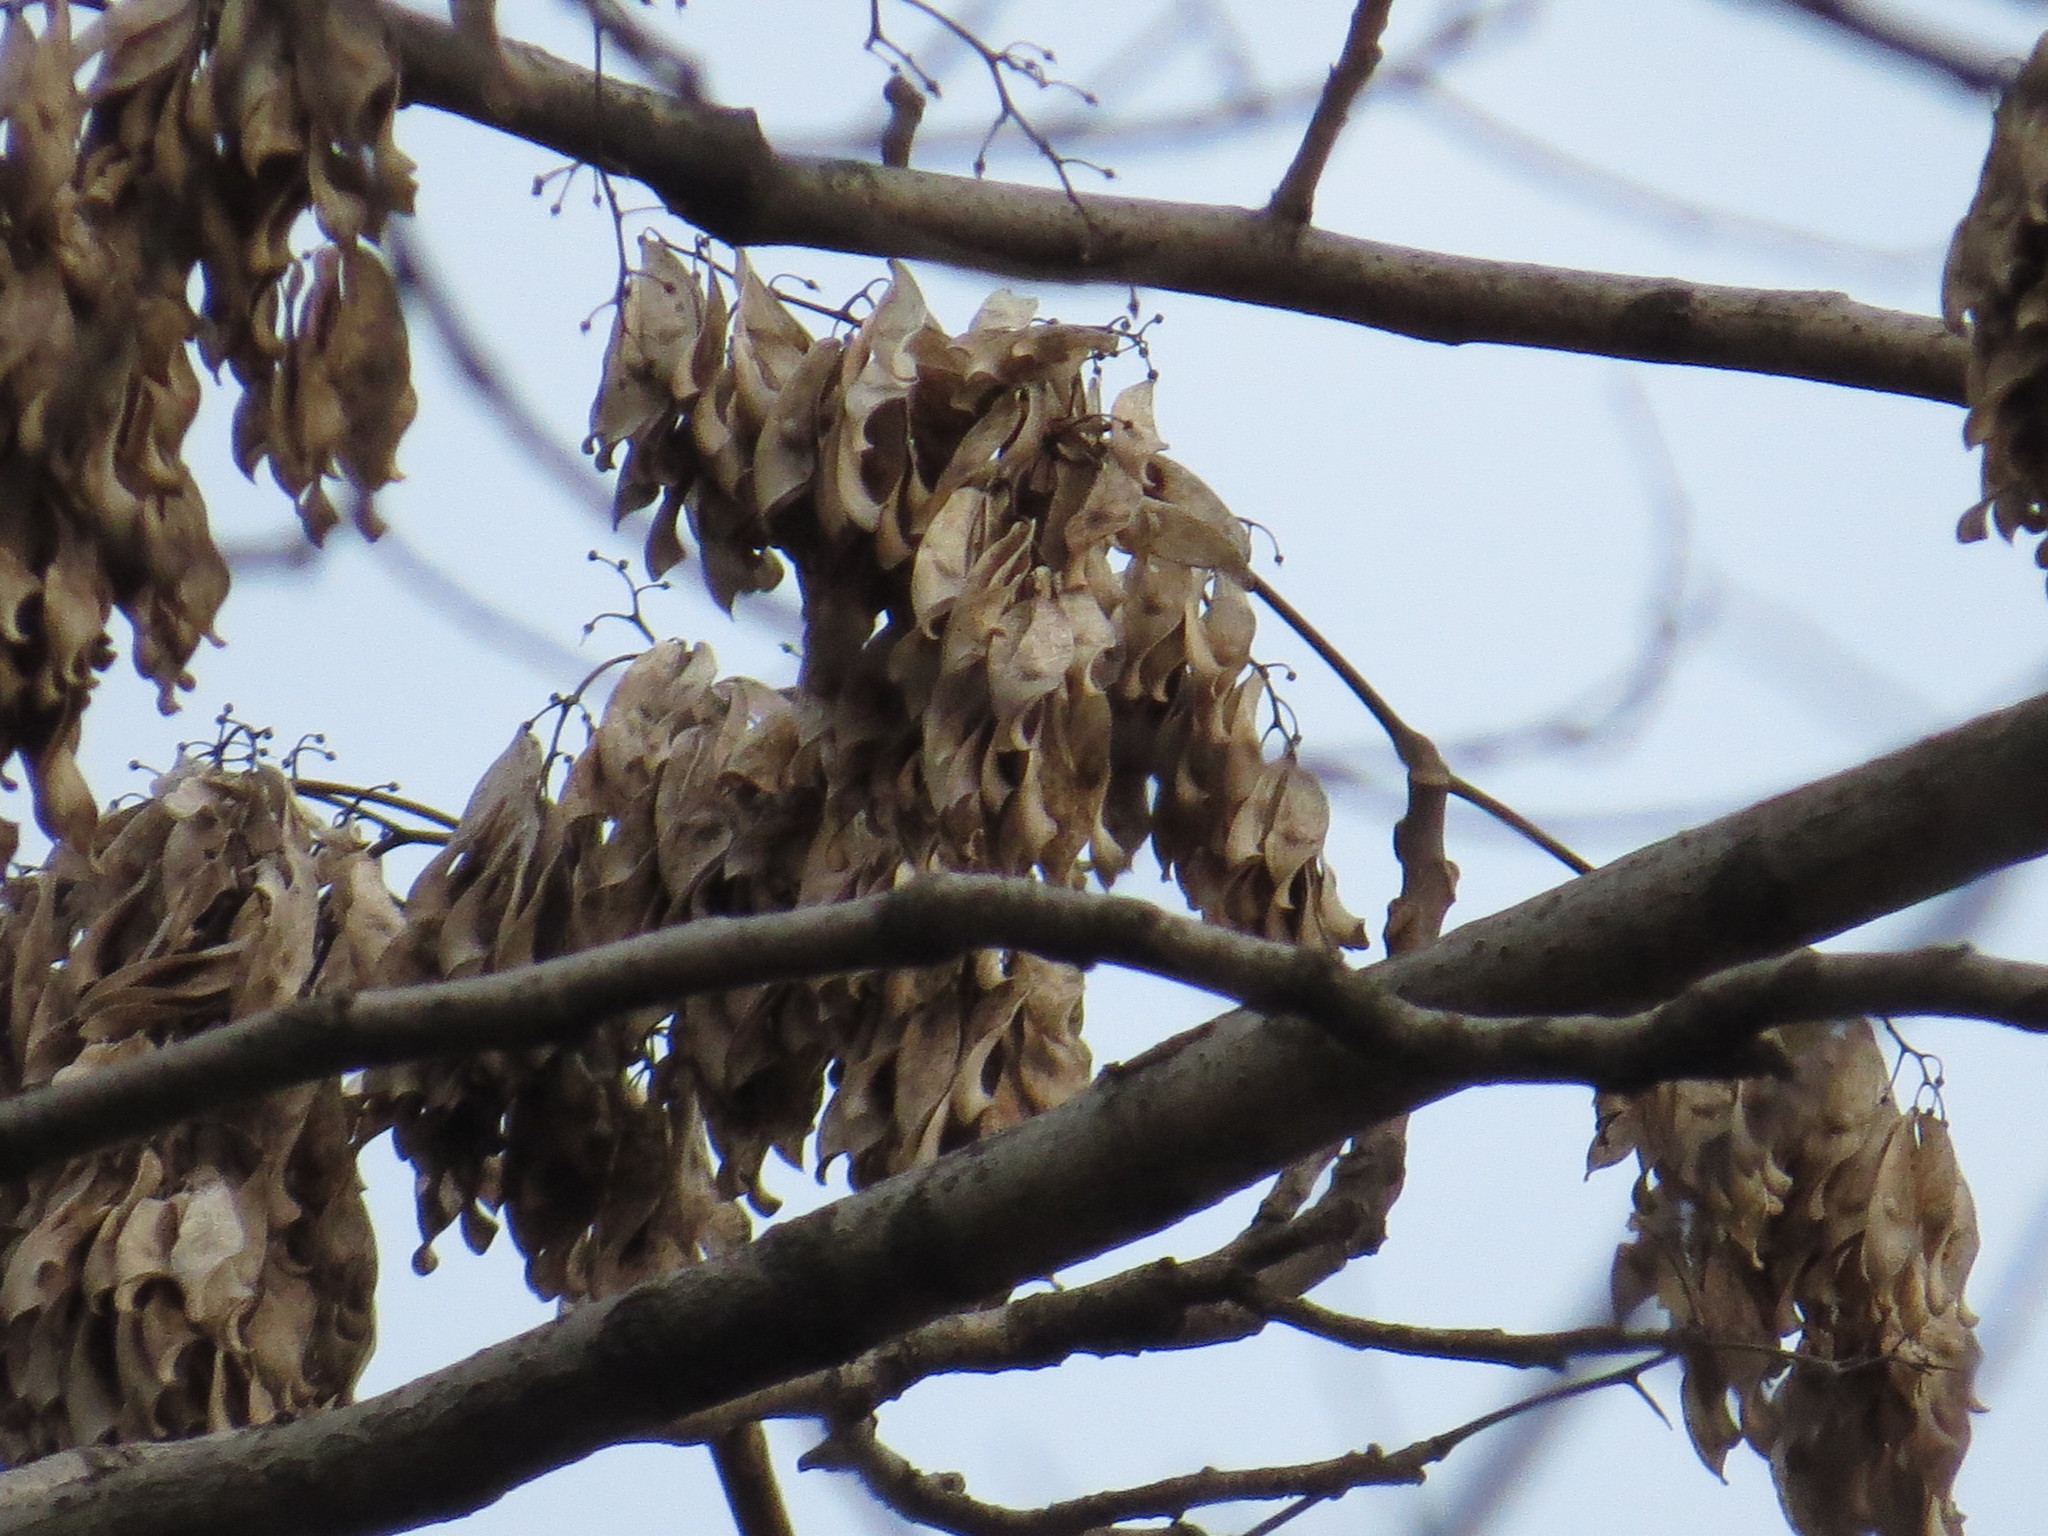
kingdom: Plantae
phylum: Tracheophyta
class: Magnoliopsida
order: Sapindales
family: Simaroubaceae
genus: Ailanthus
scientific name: Ailanthus altissima
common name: Tree-of-heaven
